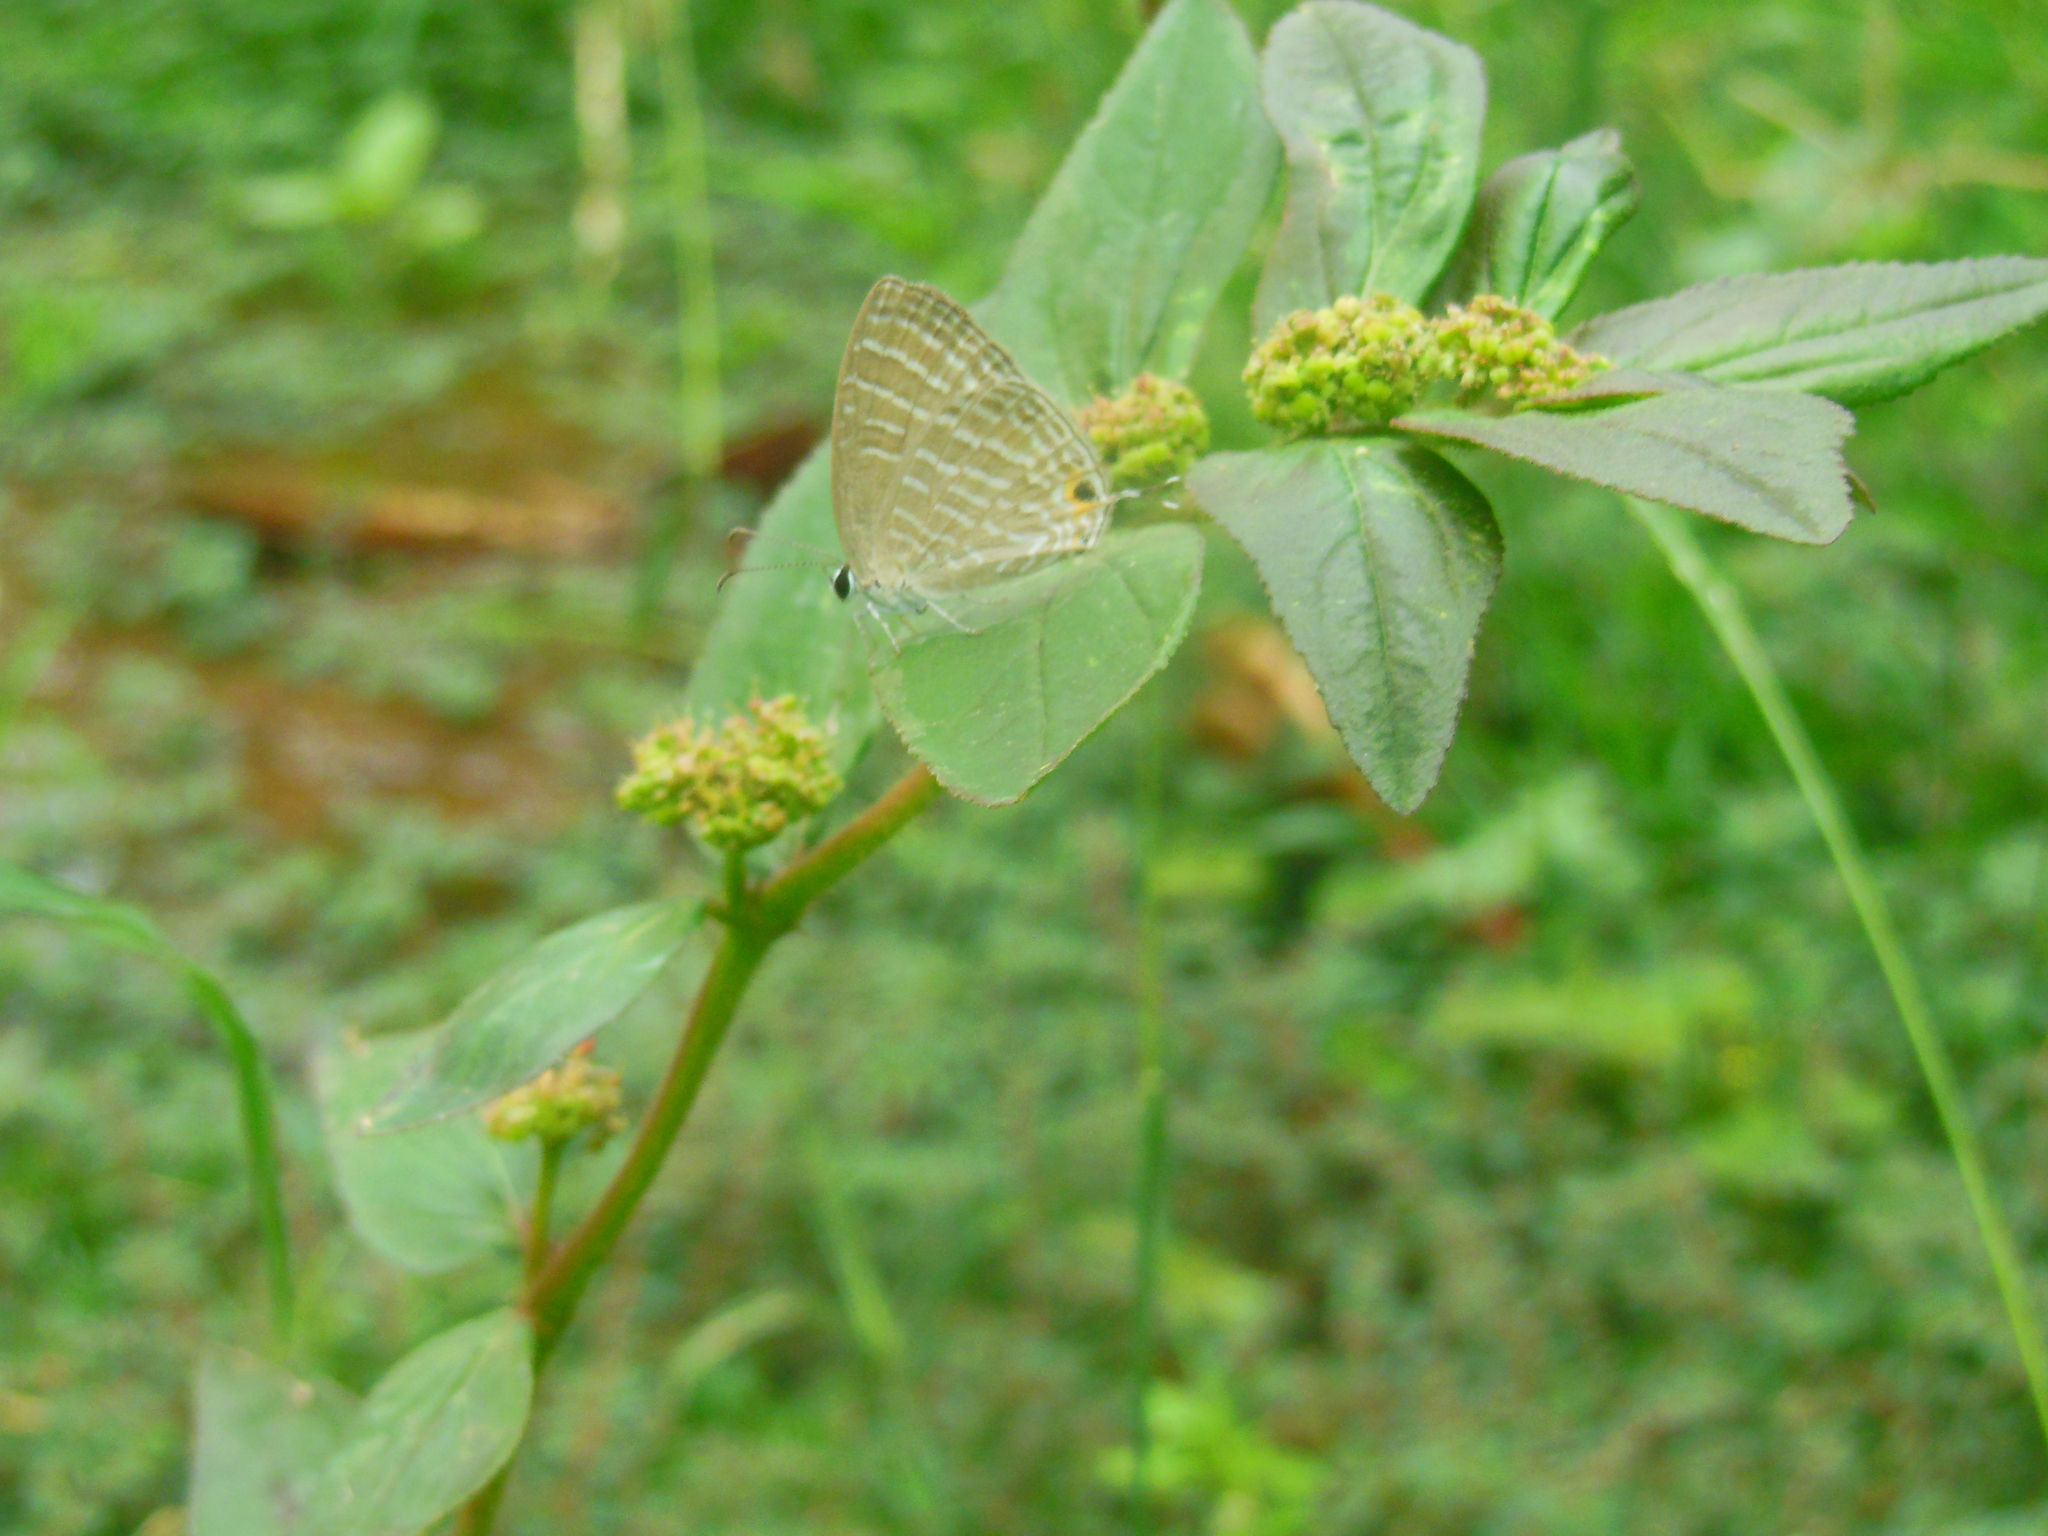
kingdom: Animalia
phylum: Arthropoda
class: Insecta
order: Lepidoptera
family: Lycaenidae
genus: Jamides
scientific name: Jamides celeno
